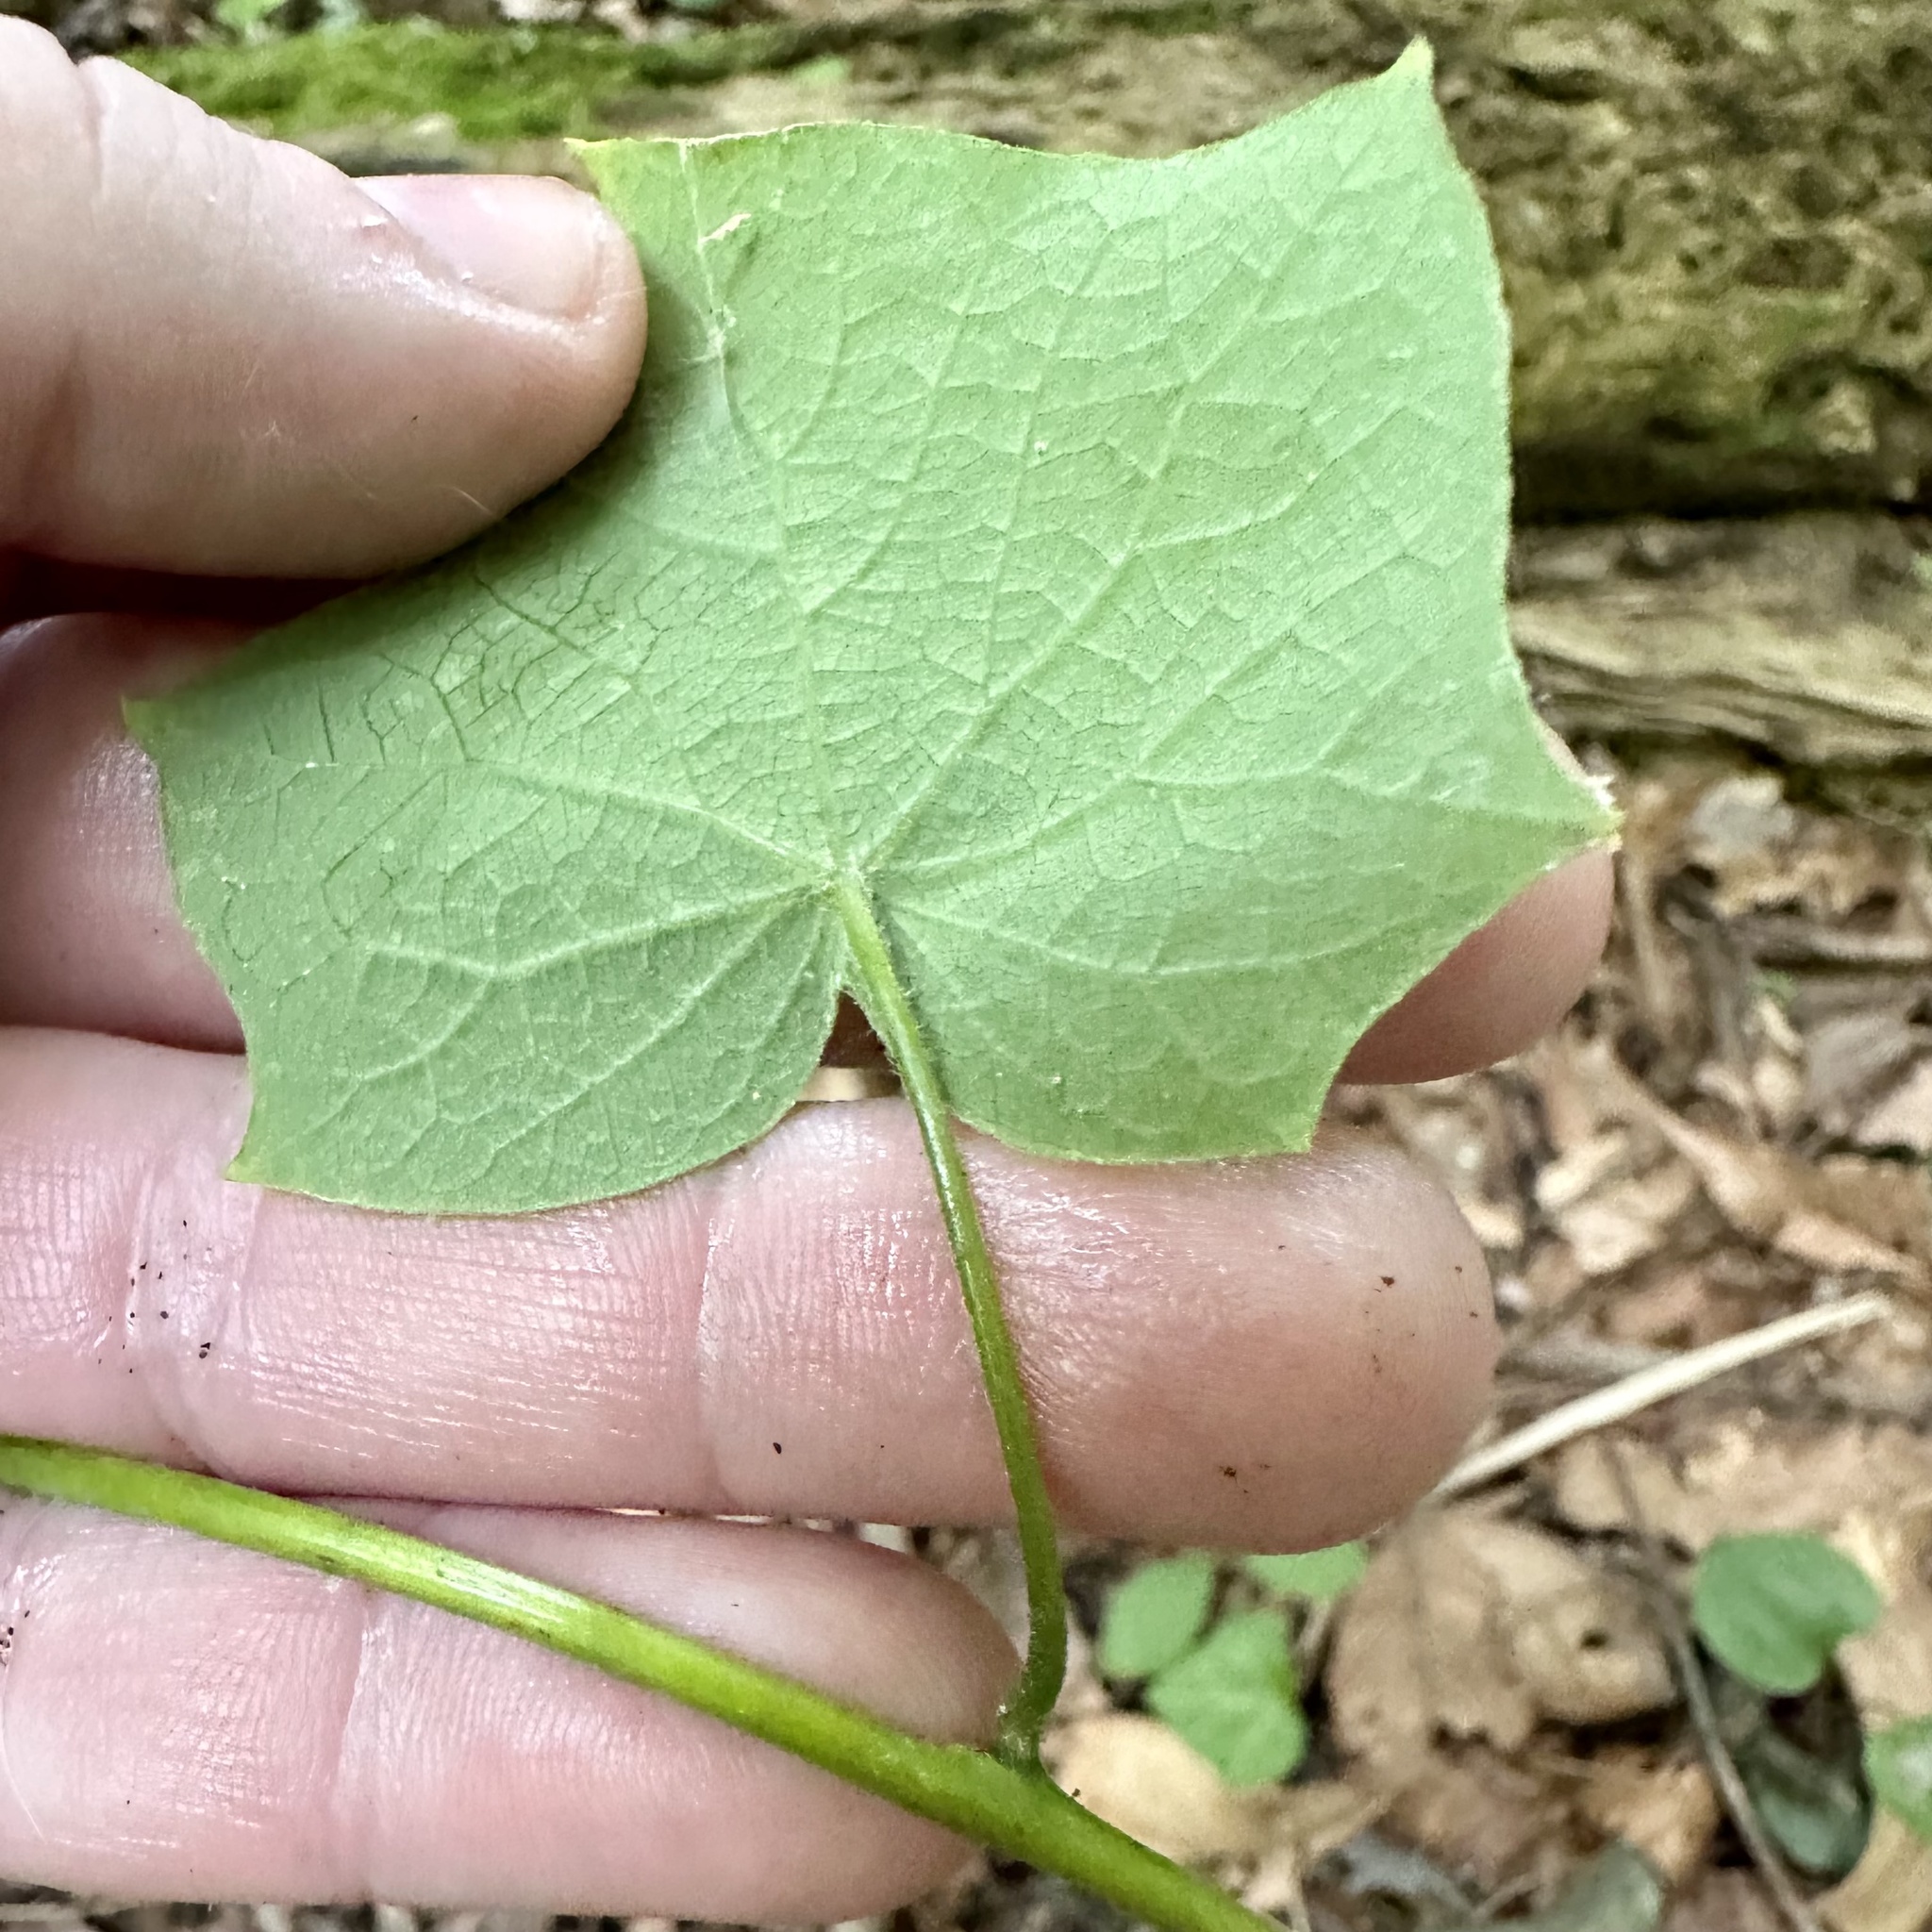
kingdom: Plantae
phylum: Tracheophyta
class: Magnoliopsida
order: Ranunculales
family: Menispermaceae
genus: Menispermum
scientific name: Menispermum canadense
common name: Moonseed
